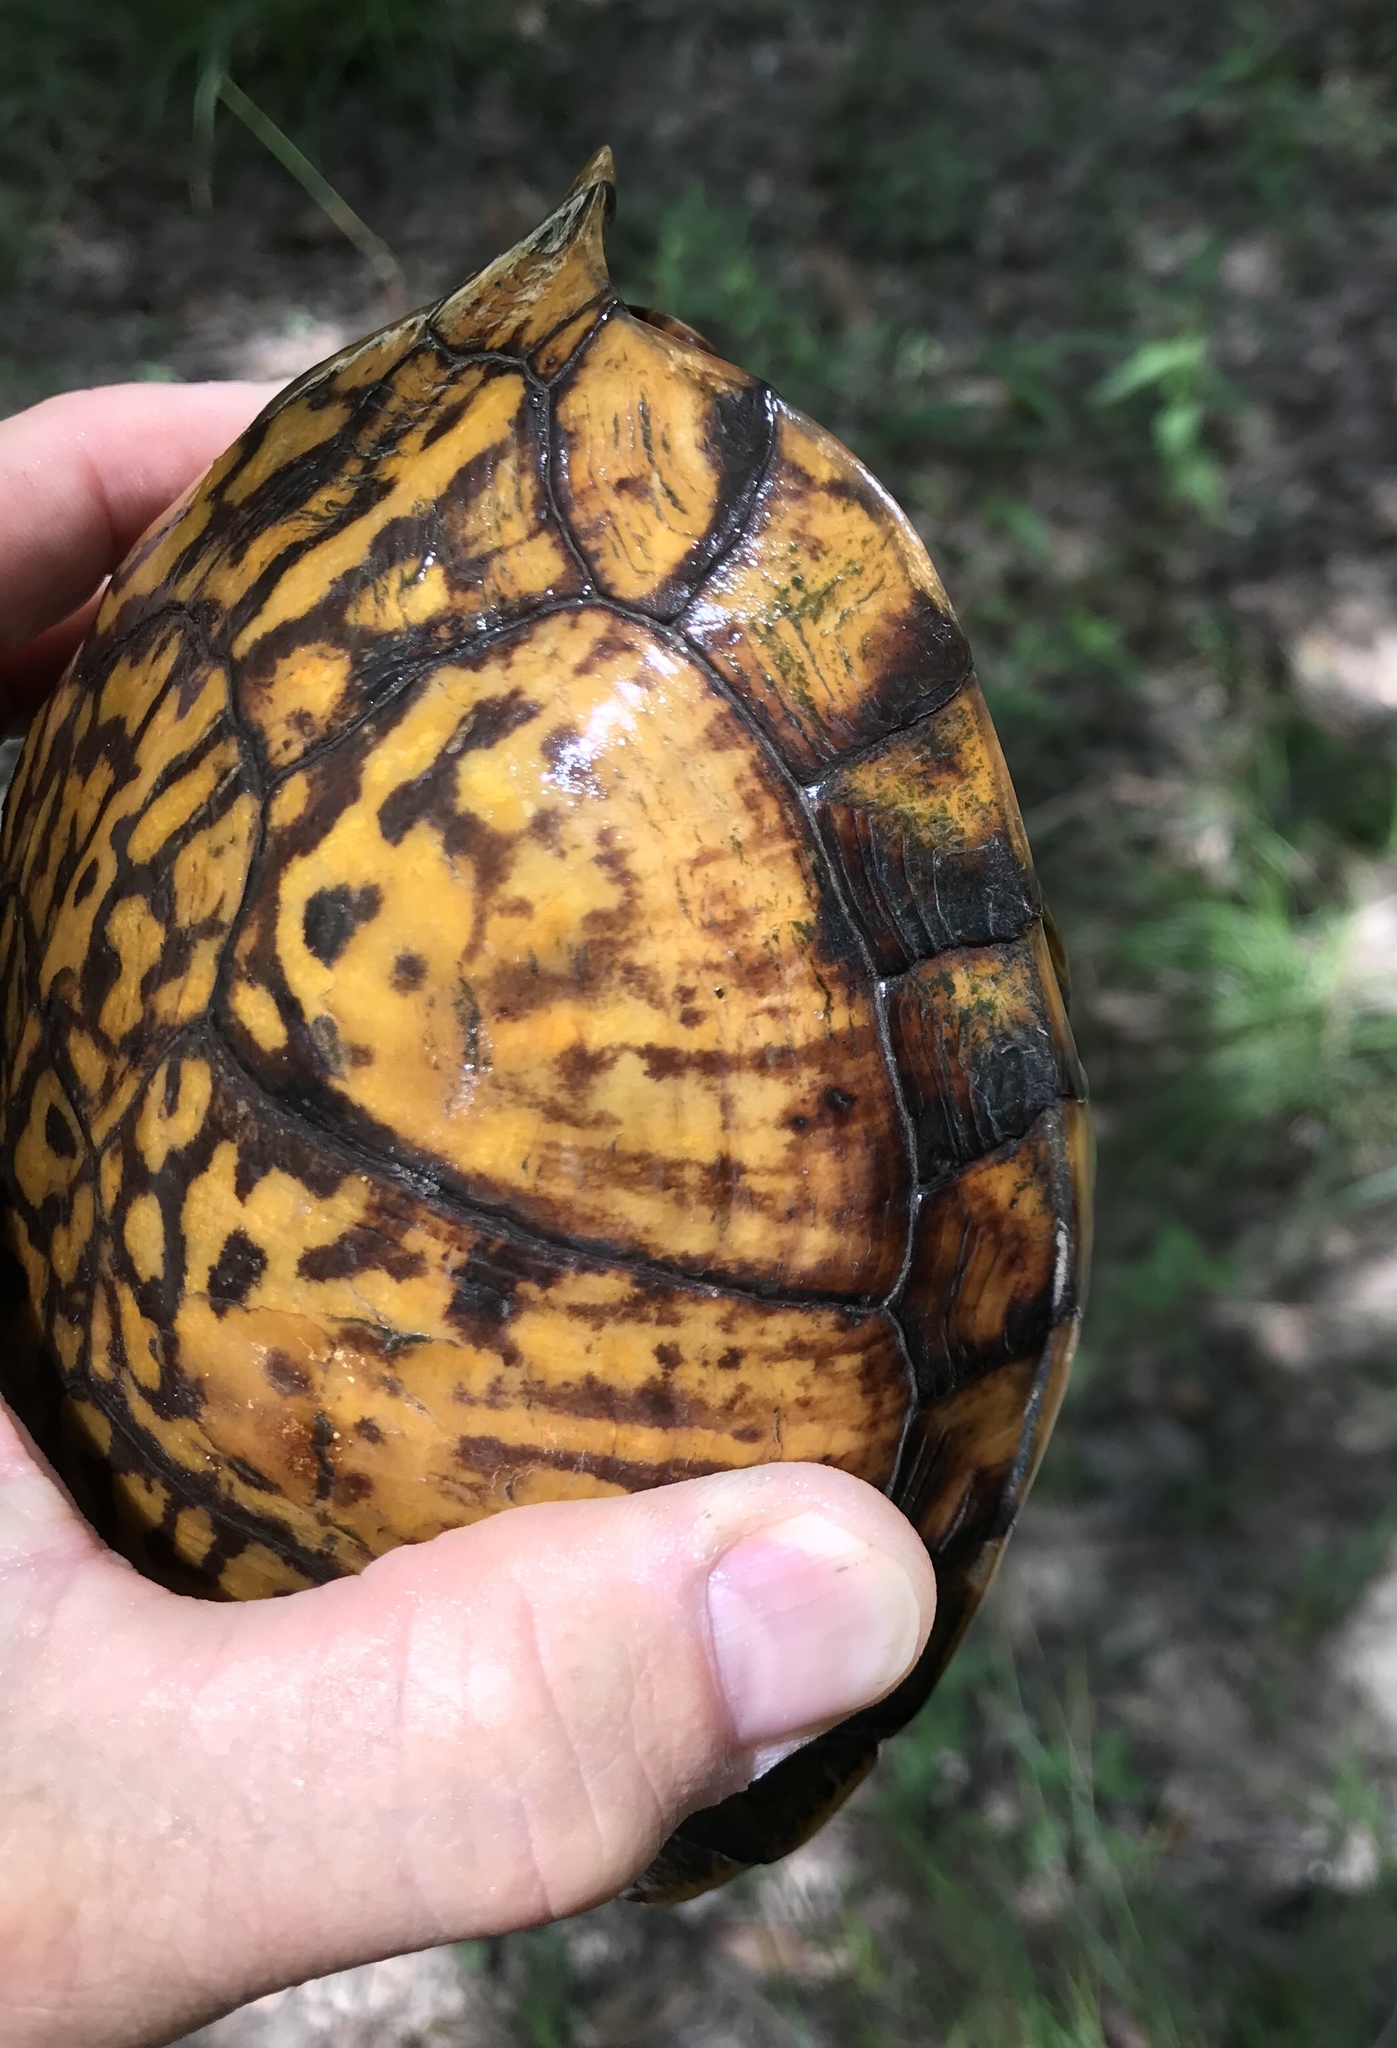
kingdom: Animalia
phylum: Chordata
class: Testudines
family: Emydidae
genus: Terrapene
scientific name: Terrapene carolina
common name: Common box turtle
